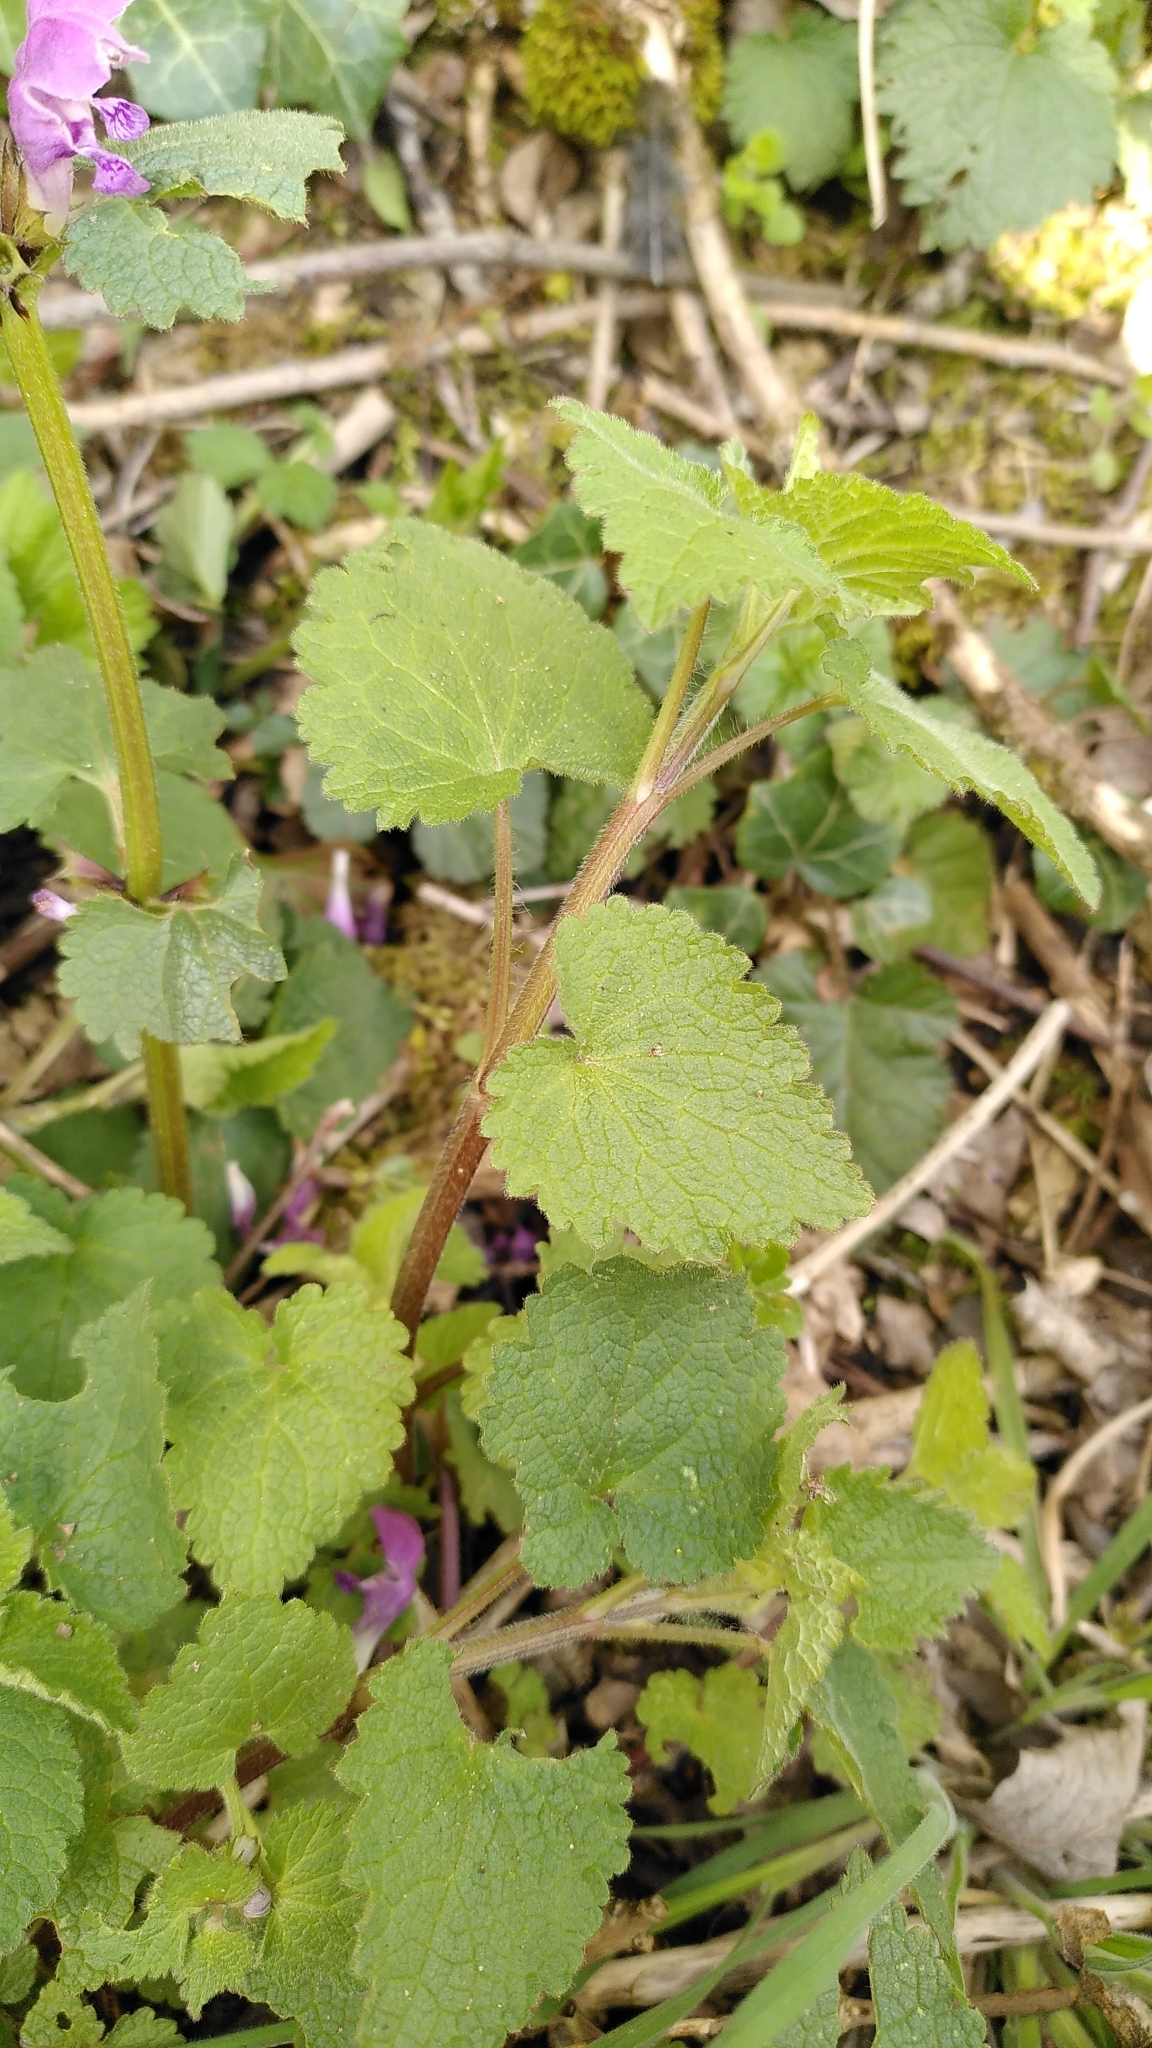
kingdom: Plantae
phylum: Tracheophyta
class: Magnoliopsida
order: Lamiales
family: Lamiaceae
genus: Lamium
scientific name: Lamium maculatum
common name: Spotted dead-nettle
